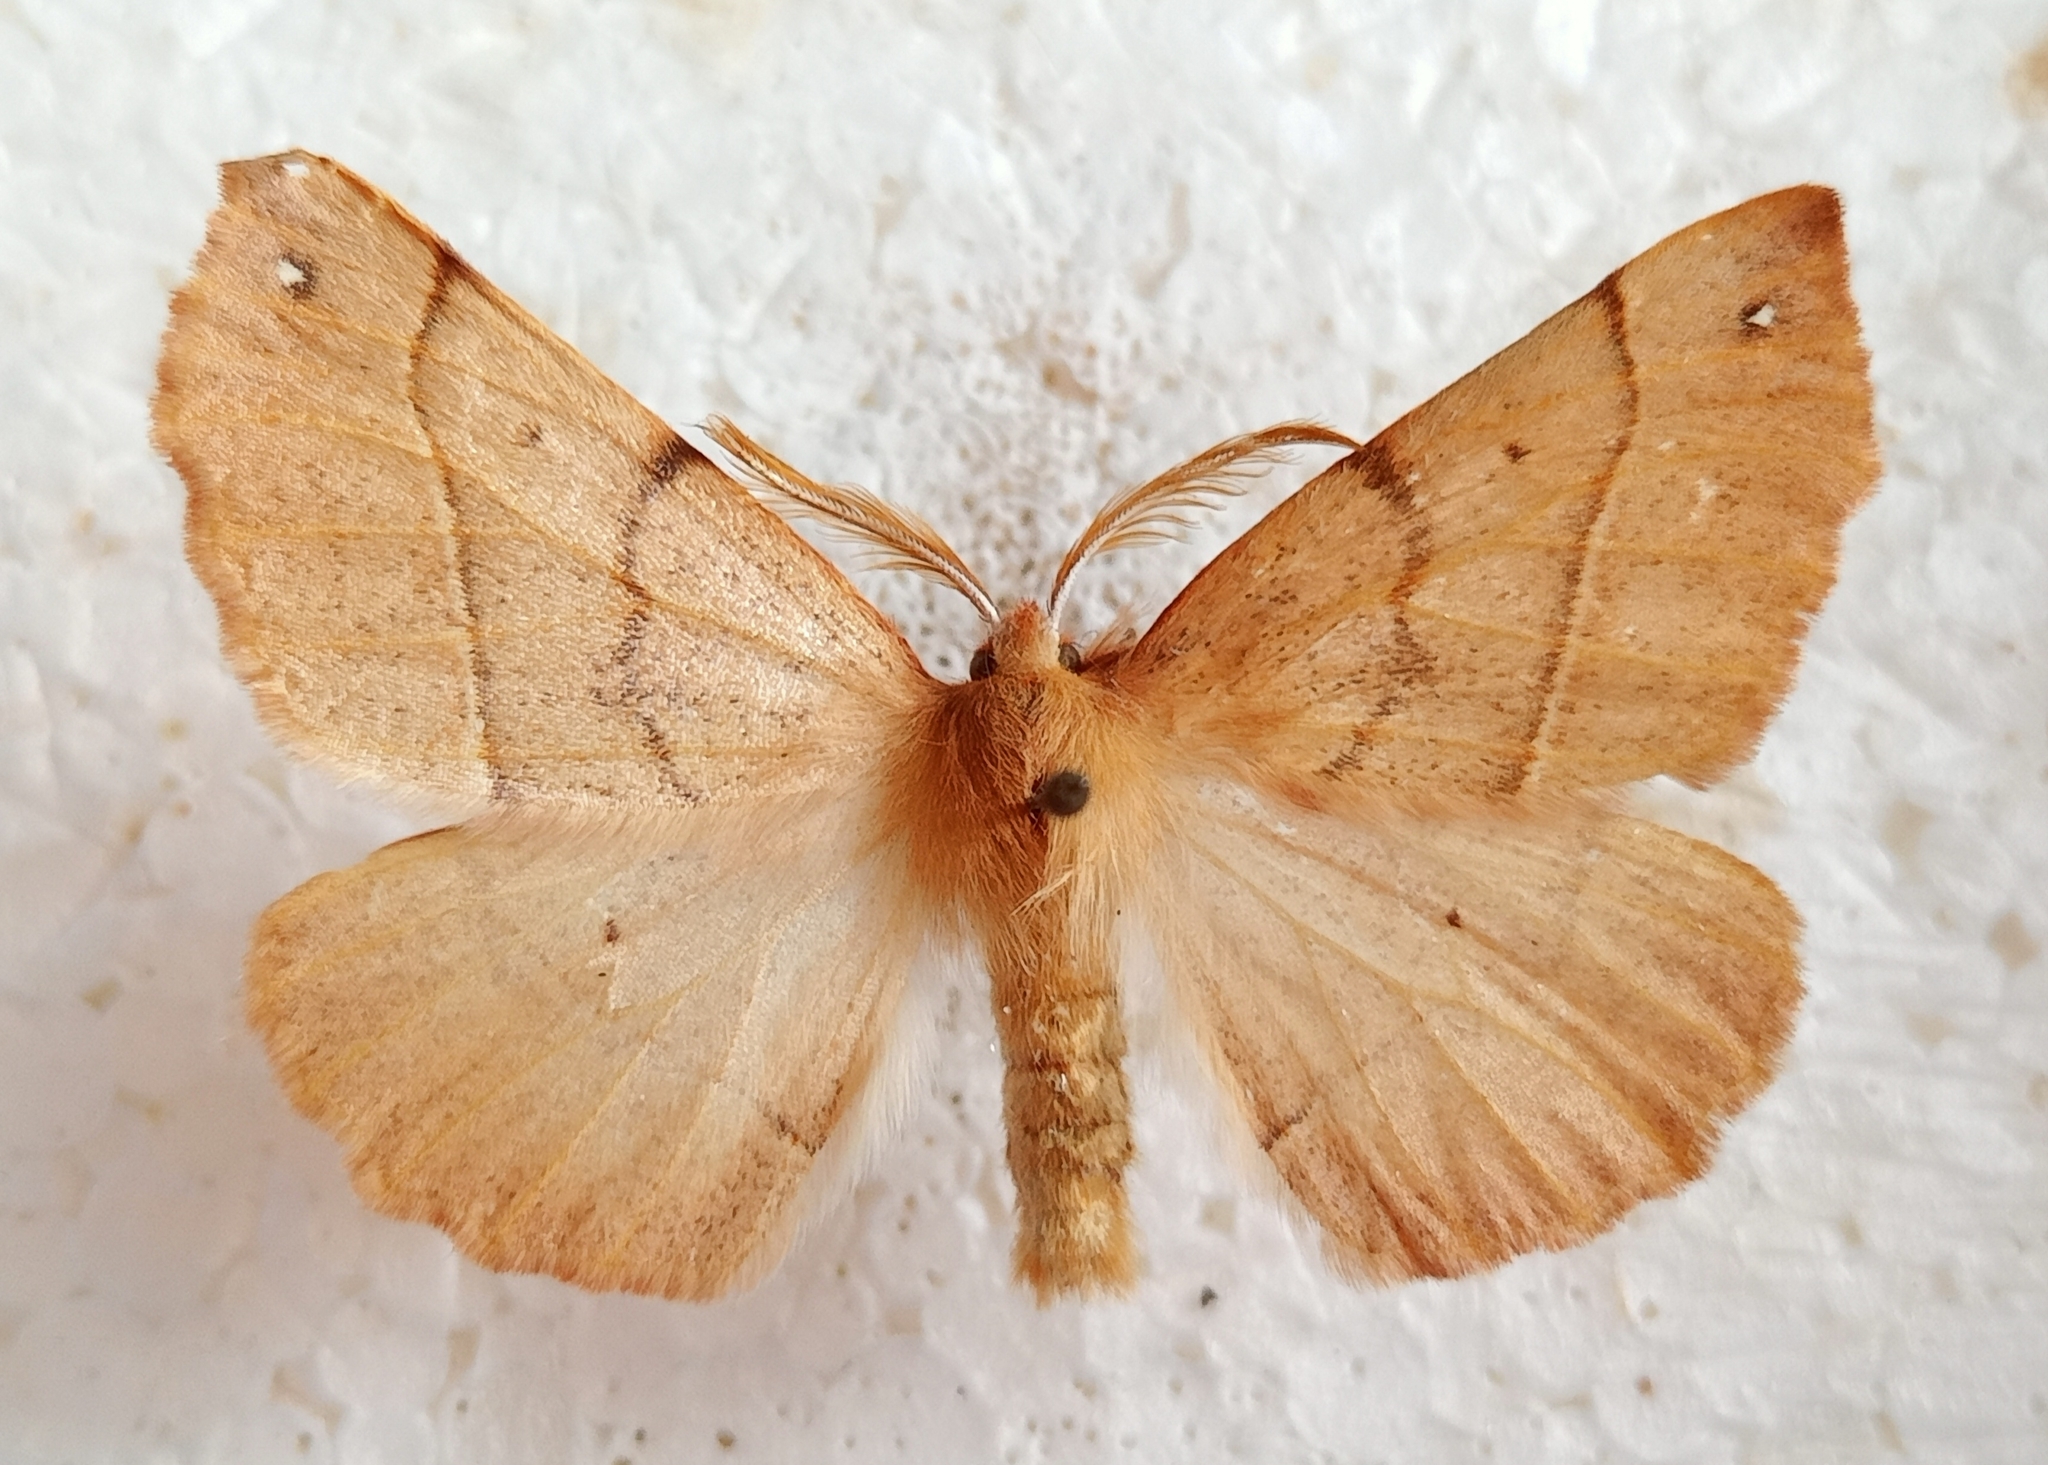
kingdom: Animalia
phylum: Arthropoda
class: Insecta
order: Lepidoptera
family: Geometridae
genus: Colotois
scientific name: Colotois pennaria
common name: Feathered thorn
